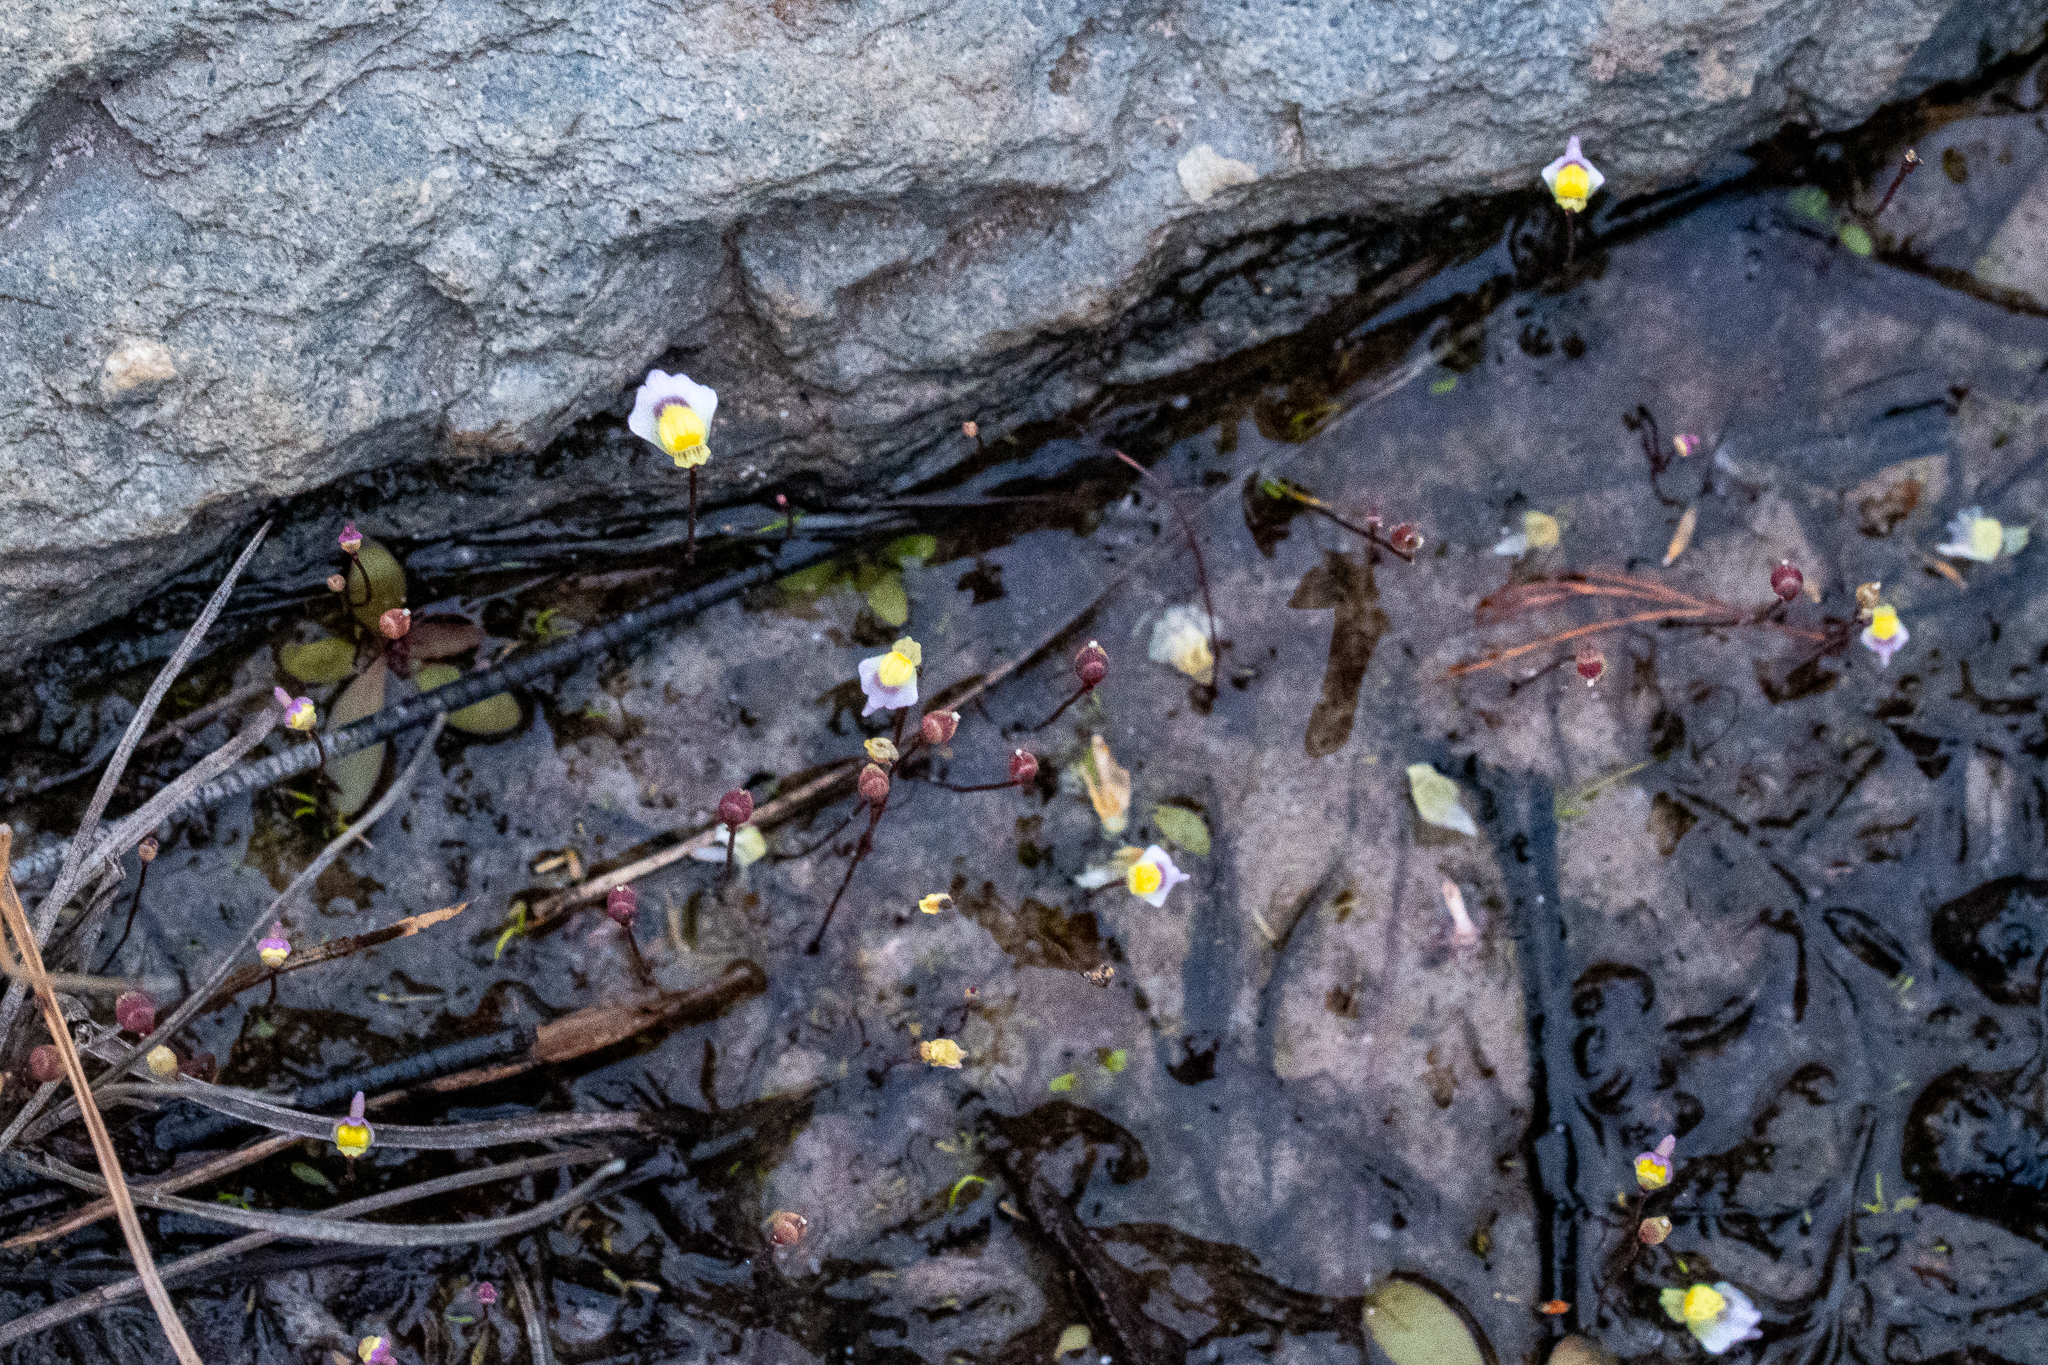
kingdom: Plantae
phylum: Tracheophyta
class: Magnoliopsida
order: Lamiales
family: Lentibulariaceae
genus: Utricularia
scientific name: Utricularia bisquamata
